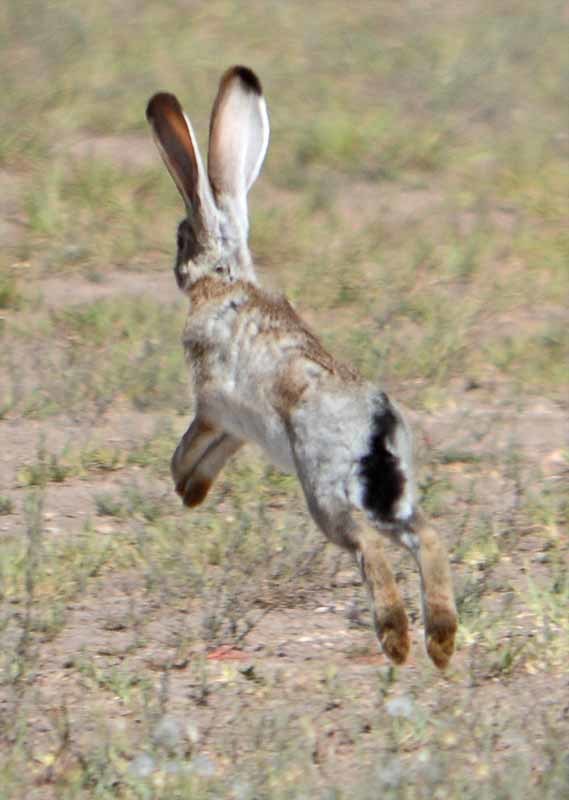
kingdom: Animalia
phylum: Chordata
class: Mammalia
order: Lagomorpha
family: Leporidae
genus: Lepus
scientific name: Lepus californicus
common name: Black-tailed jackrabbit
